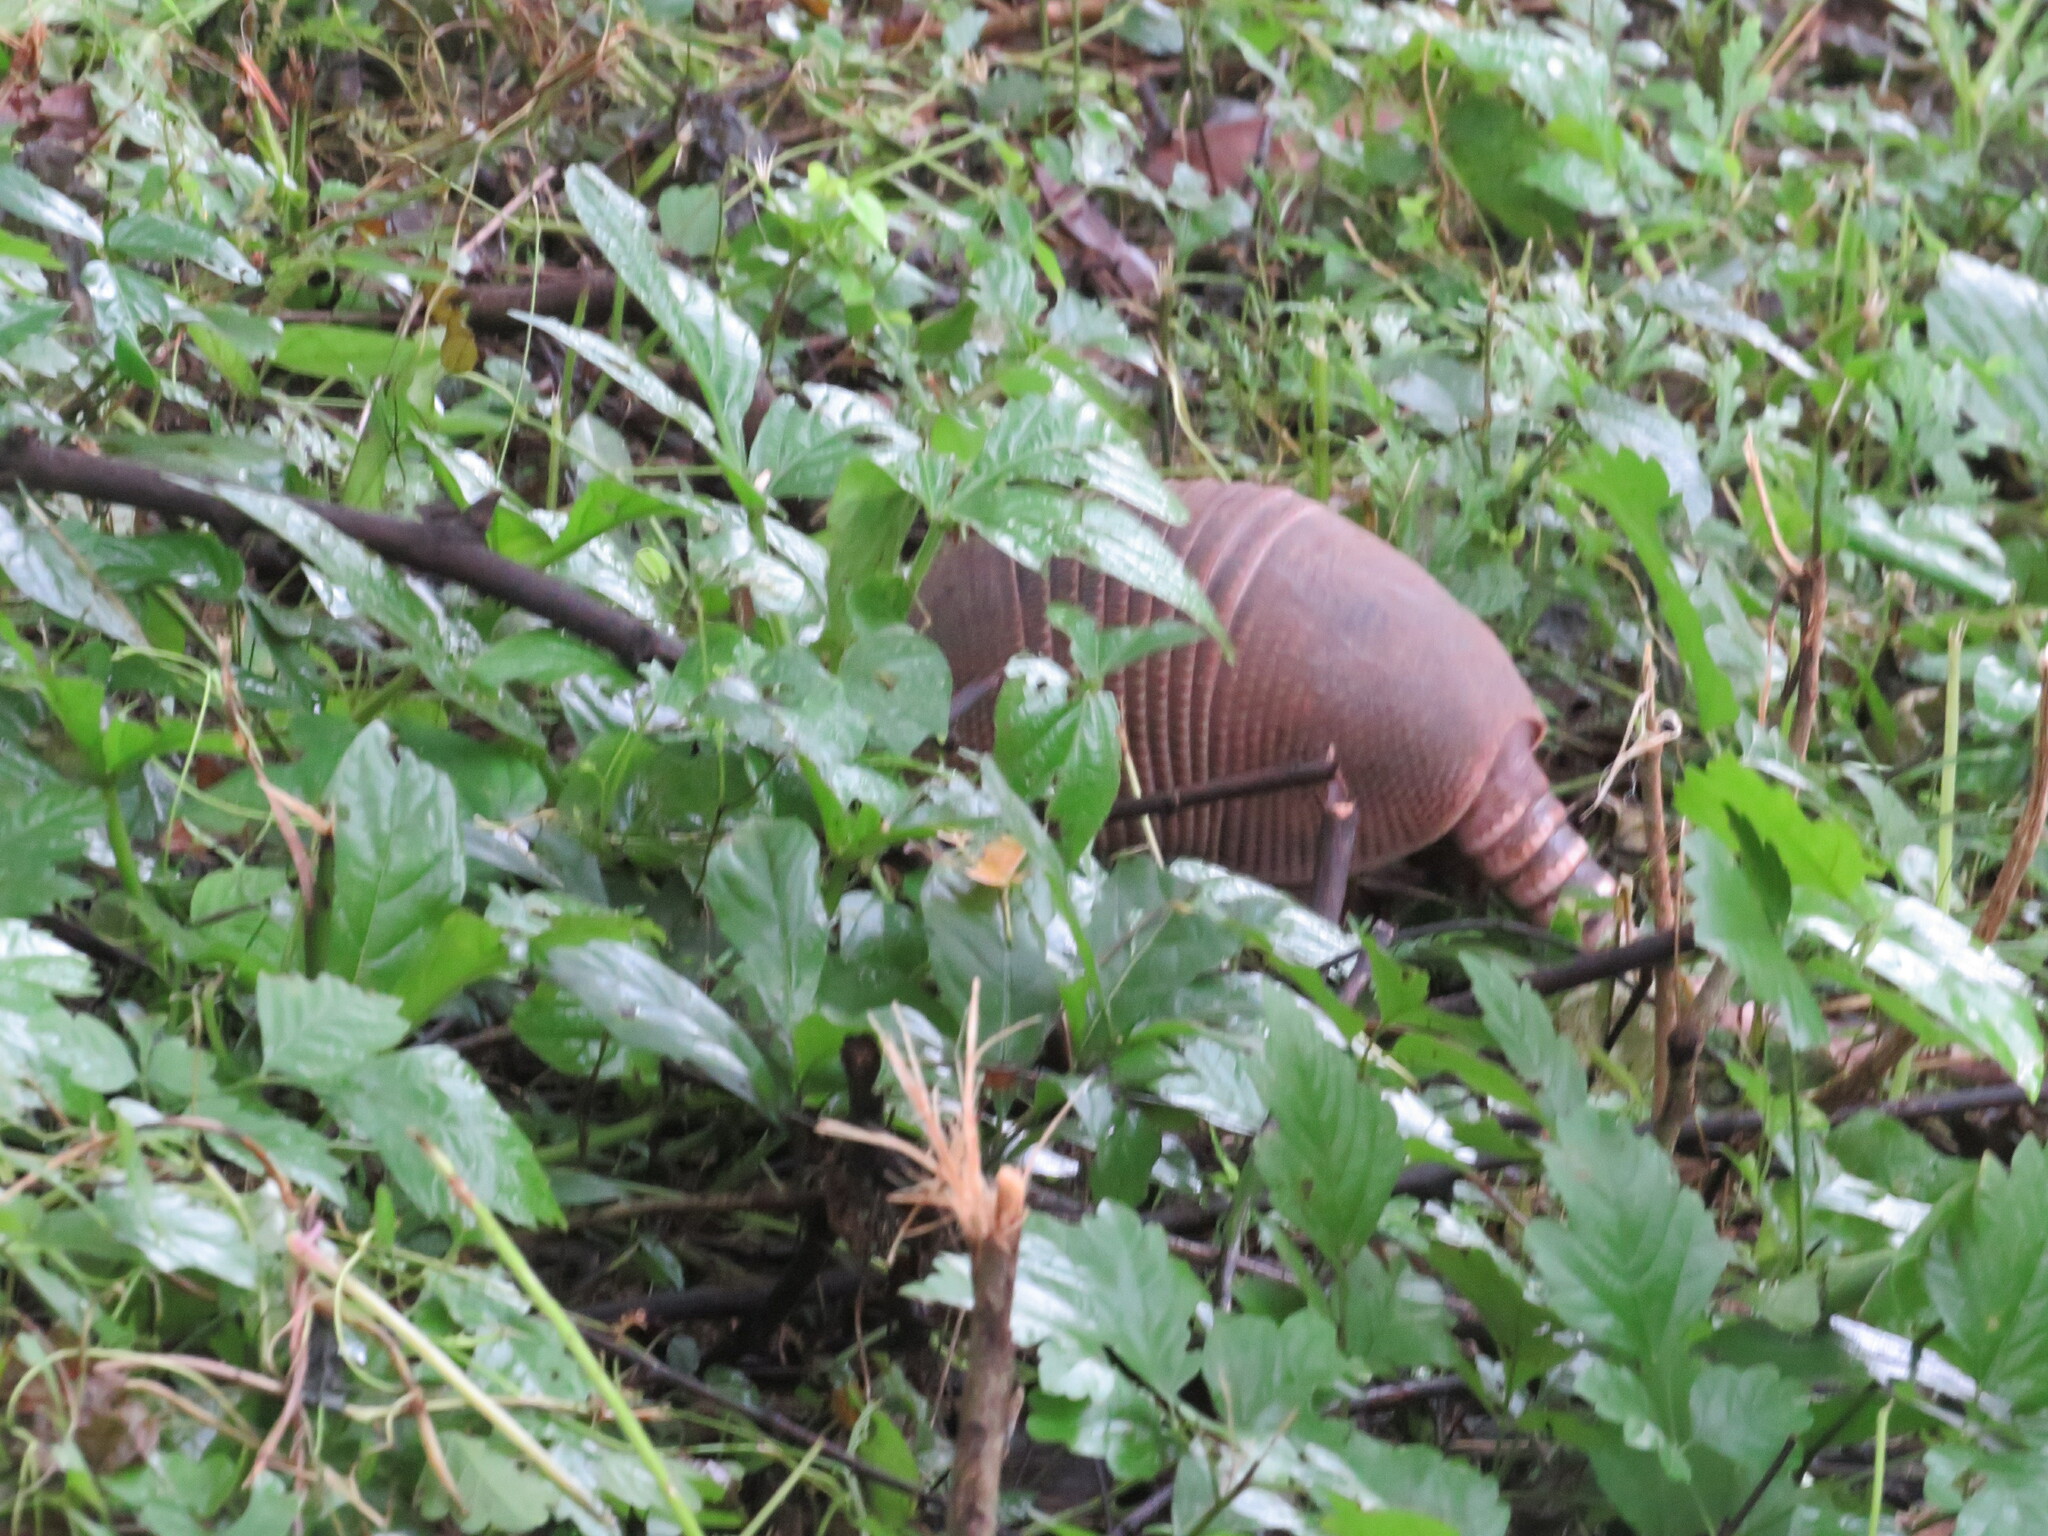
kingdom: Animalia
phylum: Chordata
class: Mammalia
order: Cingulata
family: Dasypodidae
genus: Dasypus
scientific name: Dasypus novemcinctus
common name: Nine-banded armadillo
